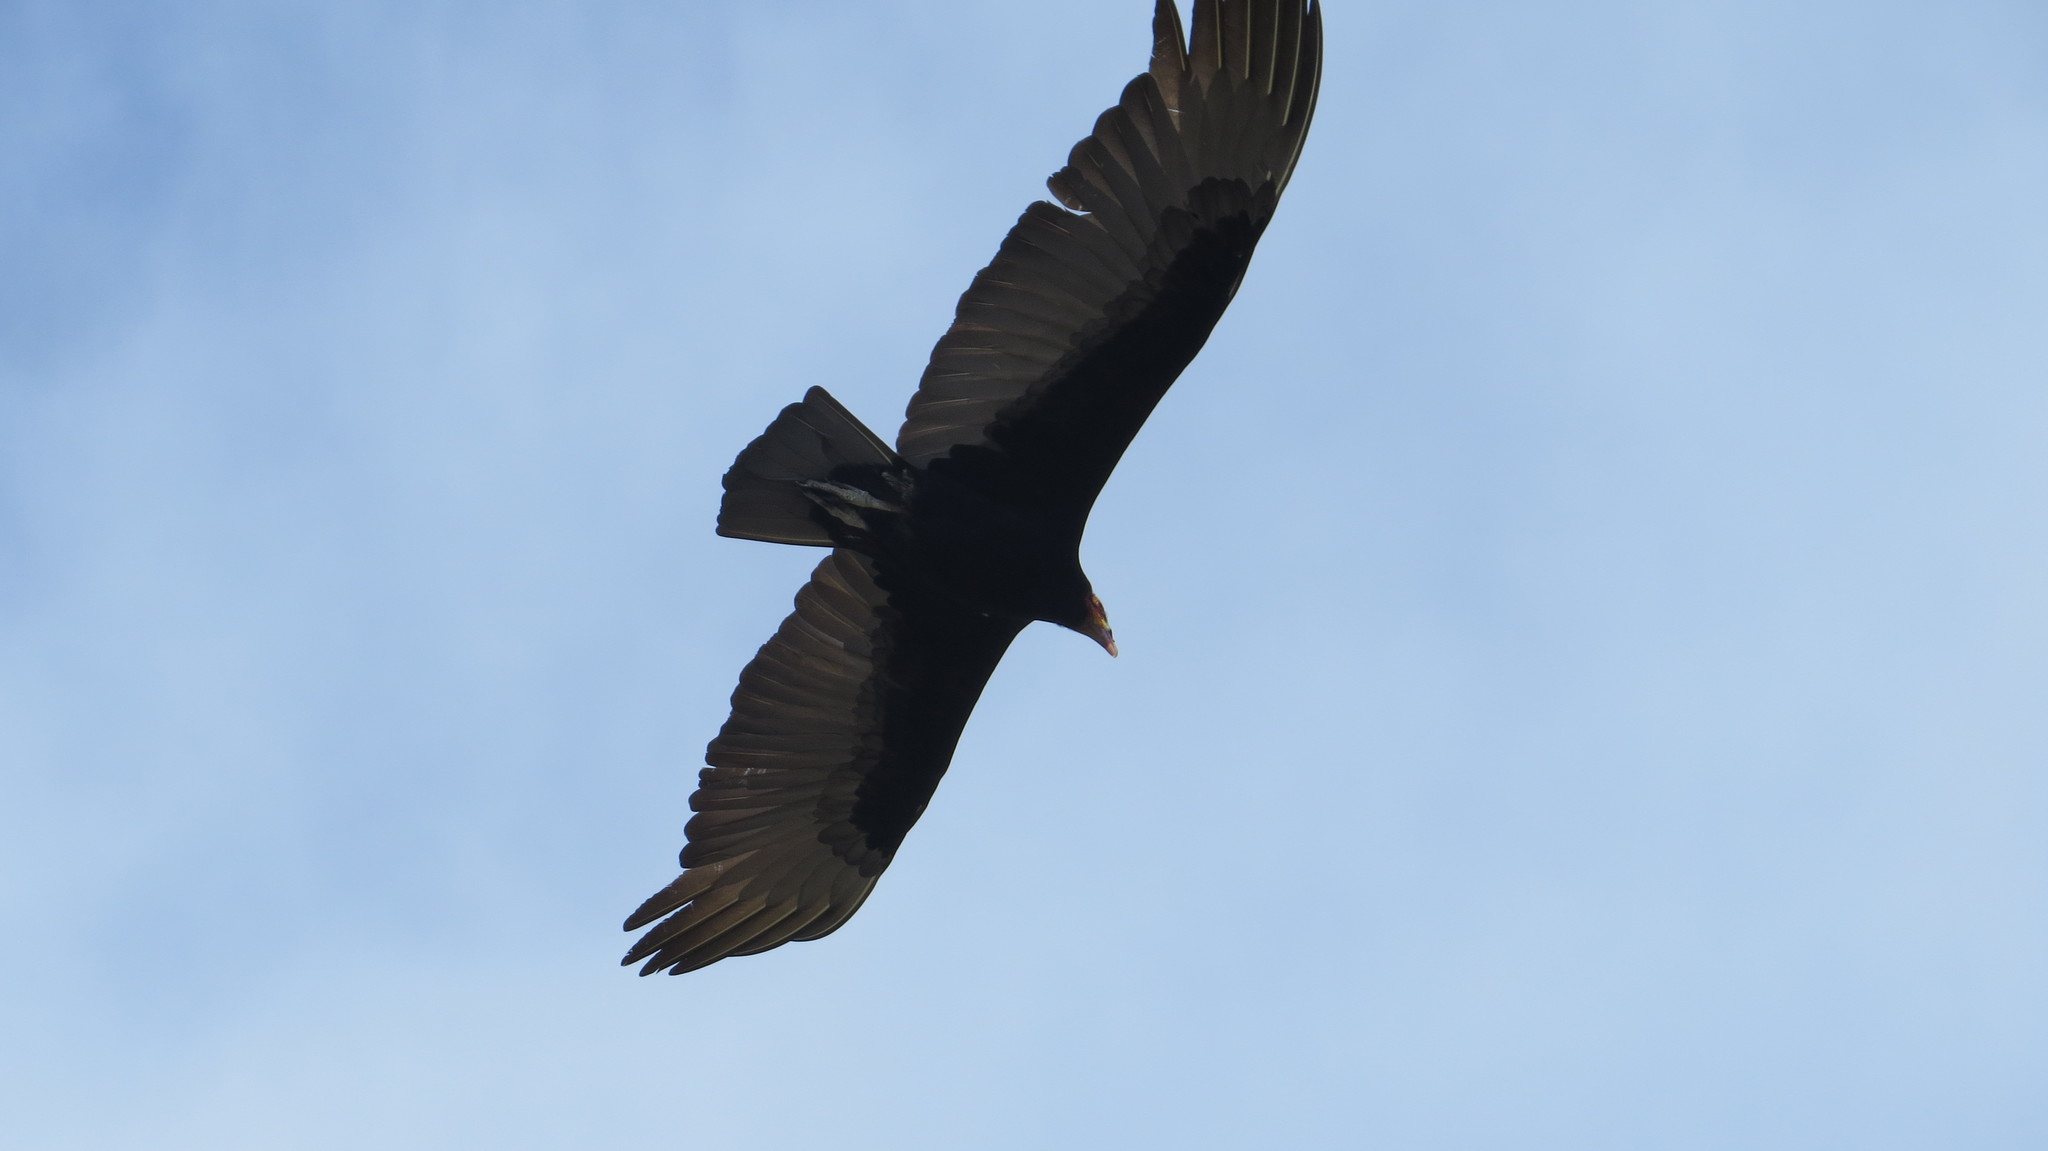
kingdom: Animalia
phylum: Chordata
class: Aves
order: Accipitriformes
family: Cathartidae
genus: Cathartes
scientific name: Cathartes burrovianus
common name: Lesser yellow-headed vulture
